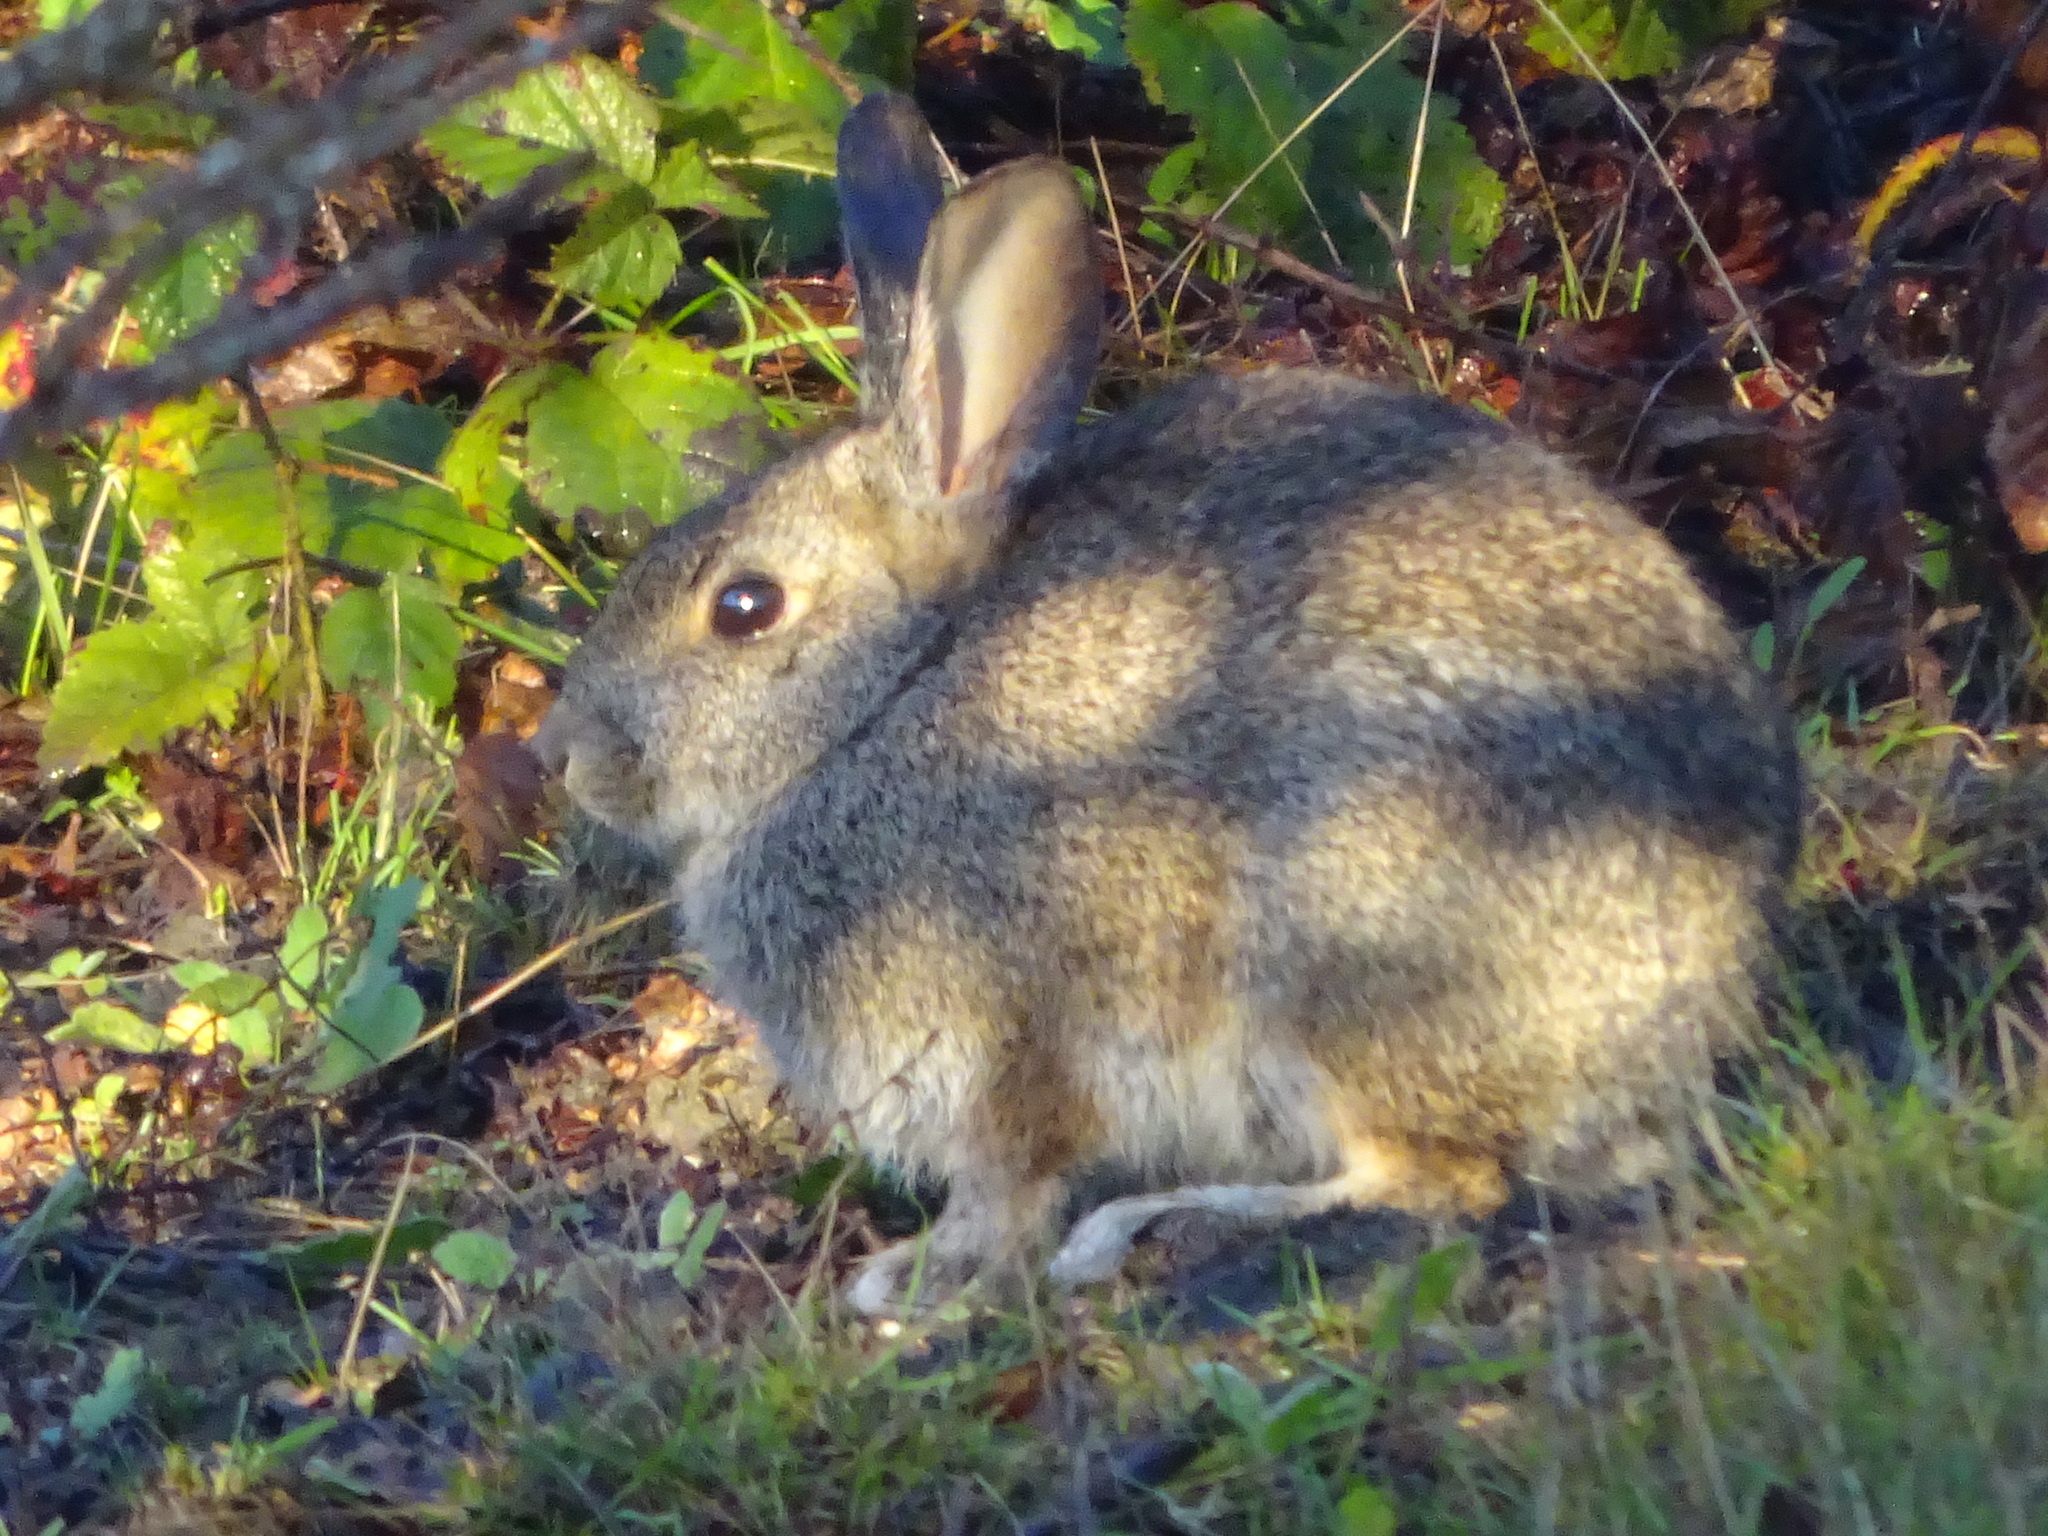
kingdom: Animalia
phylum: Chordata
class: Mammalia
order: Lagomorpha
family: Leporidae
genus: Sylvilagus
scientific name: Sylvilagus bachmani
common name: Brush rabbit
